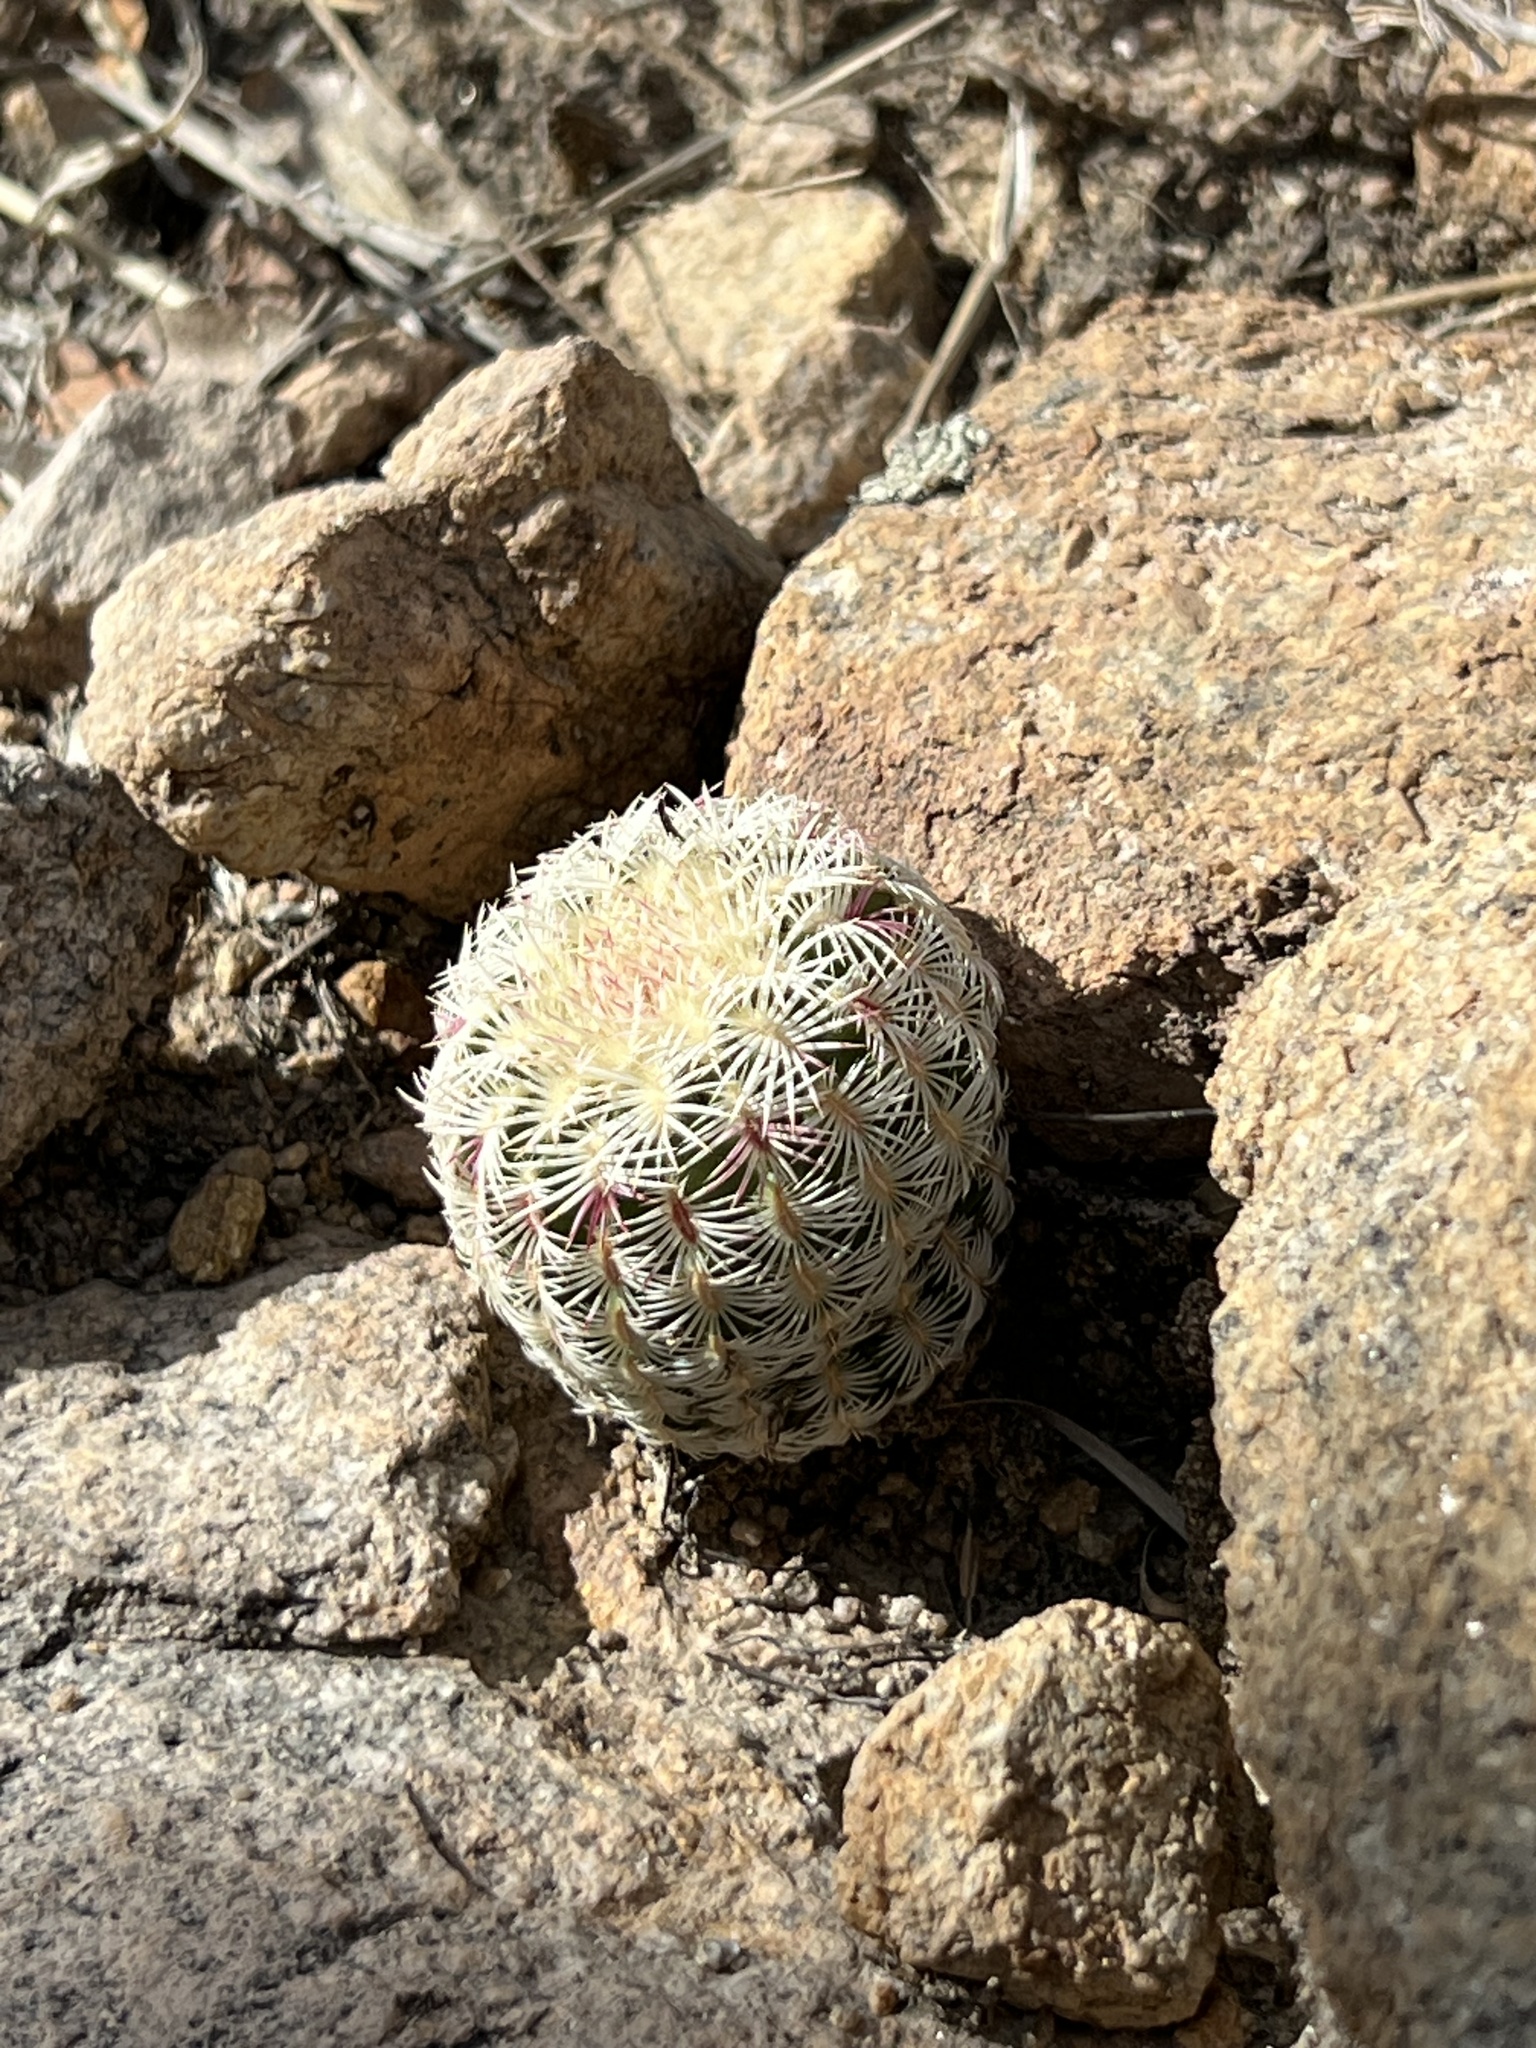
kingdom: Plantae
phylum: Tracheophyta
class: Magnoliopsida
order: Caryophyllales
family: Cactaceae
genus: Echinocereus
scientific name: Echinocereus rigidissimus
